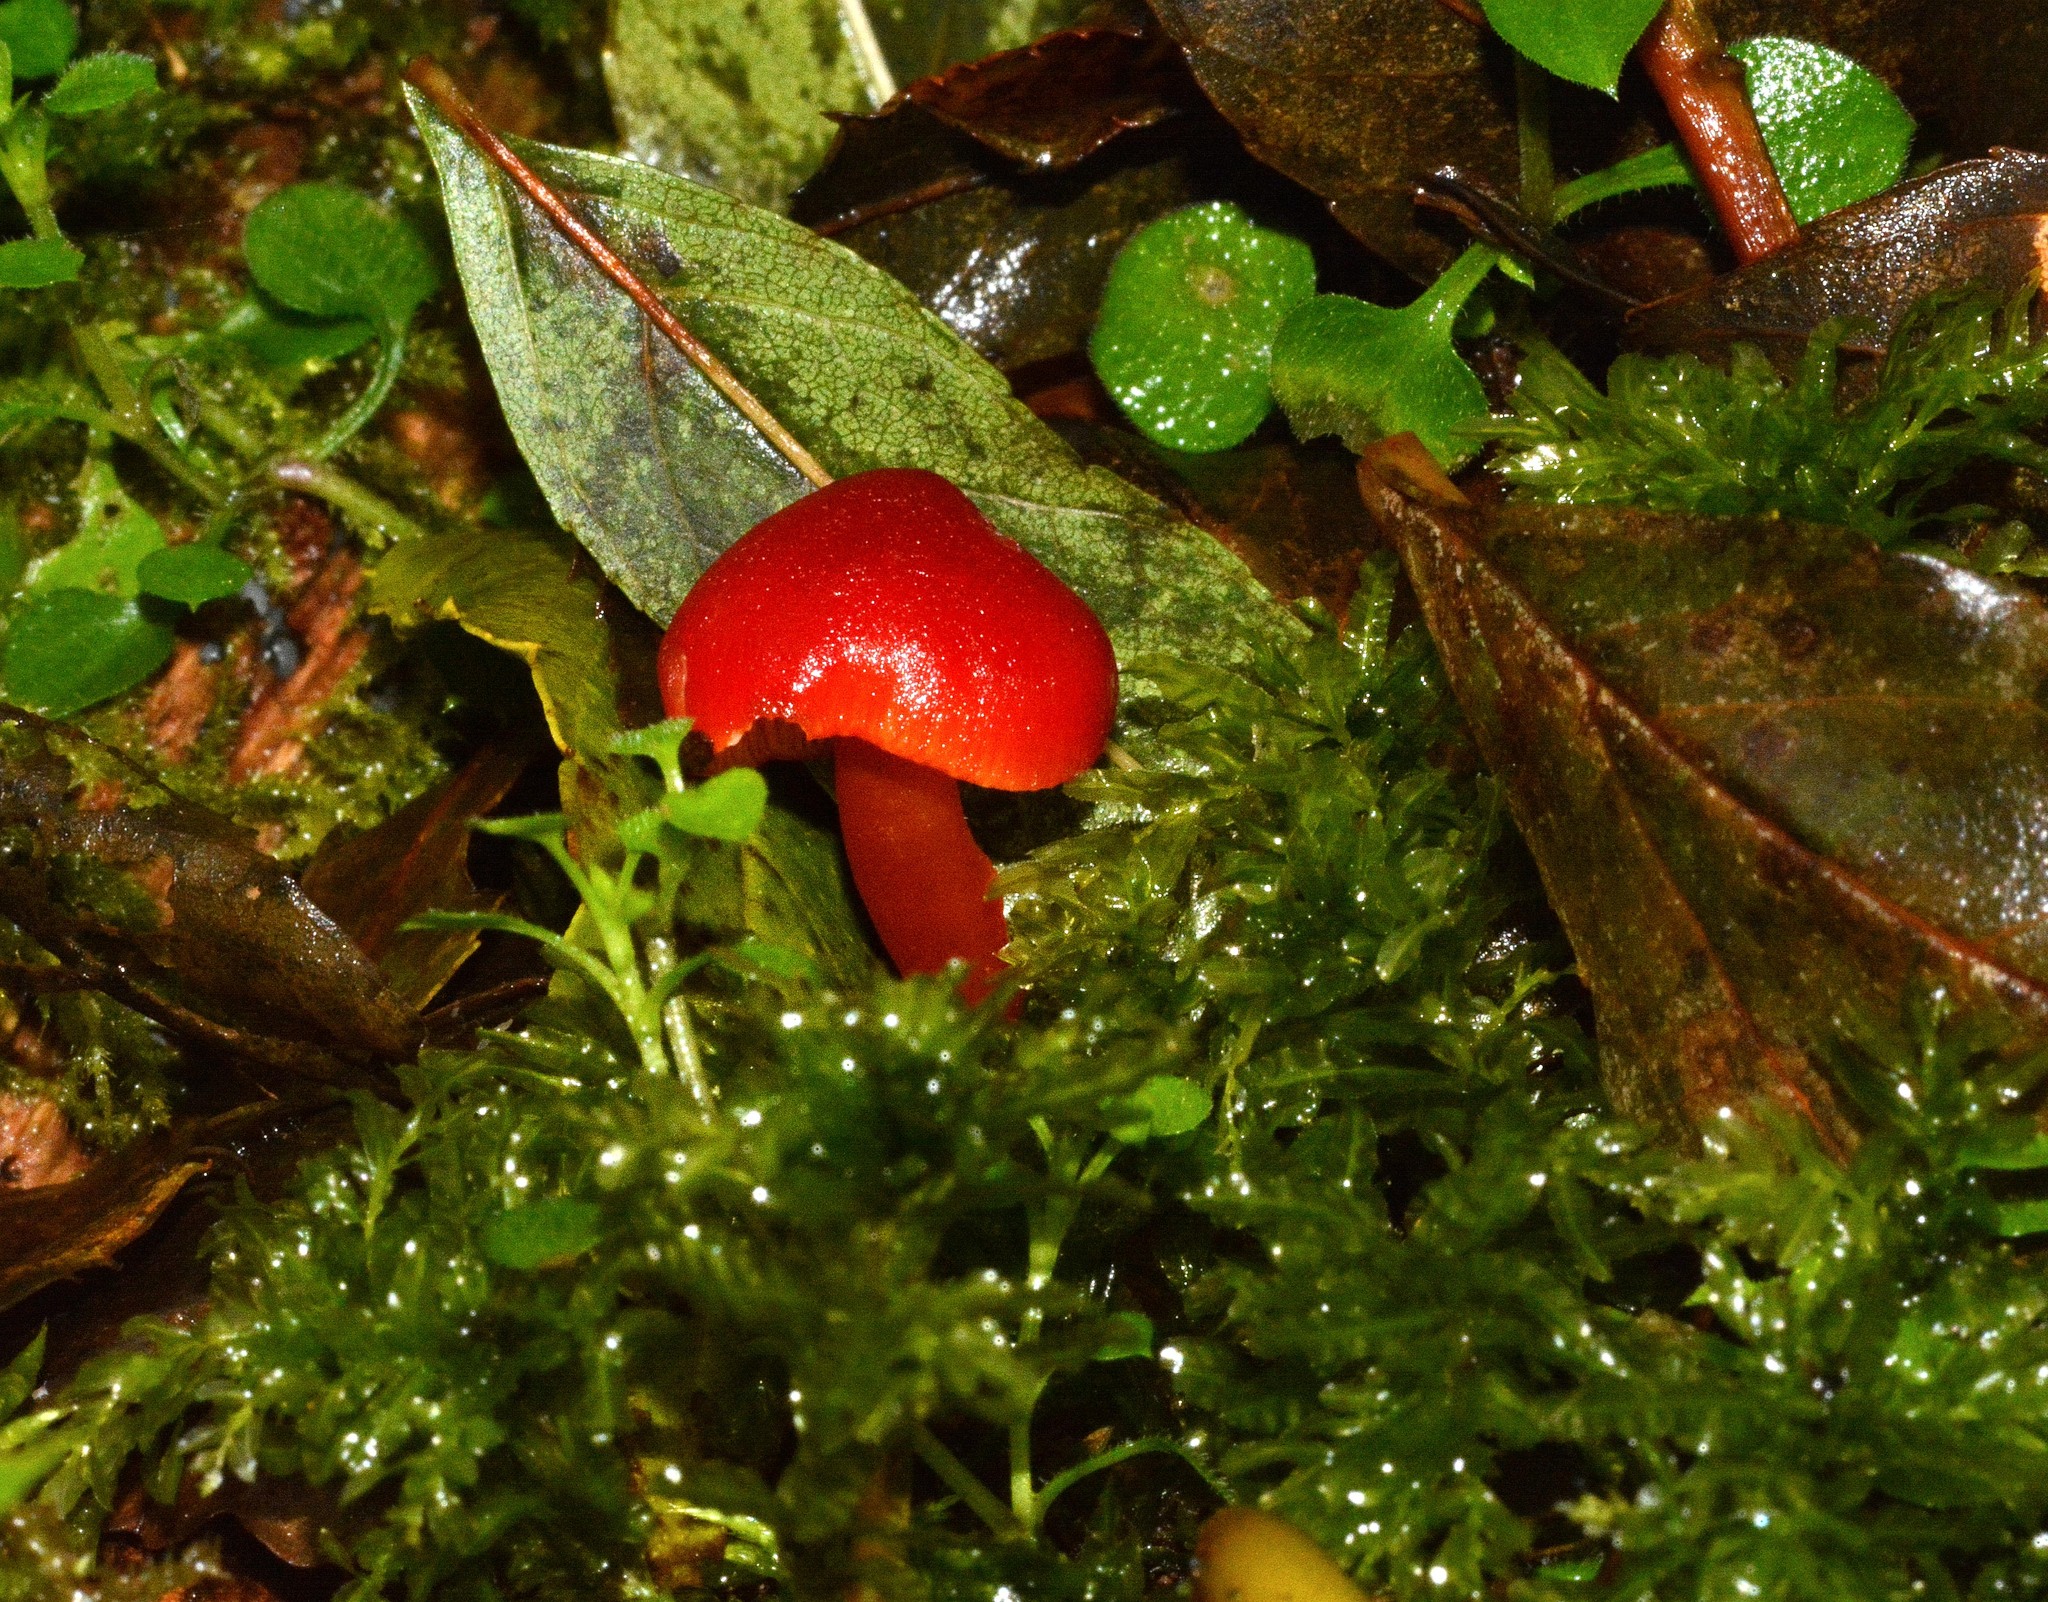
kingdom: Fungi
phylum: Basidiomycota
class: Agaricomycetes
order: Agaricales
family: Hygrophoraceae
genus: Hygrocybe
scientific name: Hygrocybe coccinea
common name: Scarlet hood
